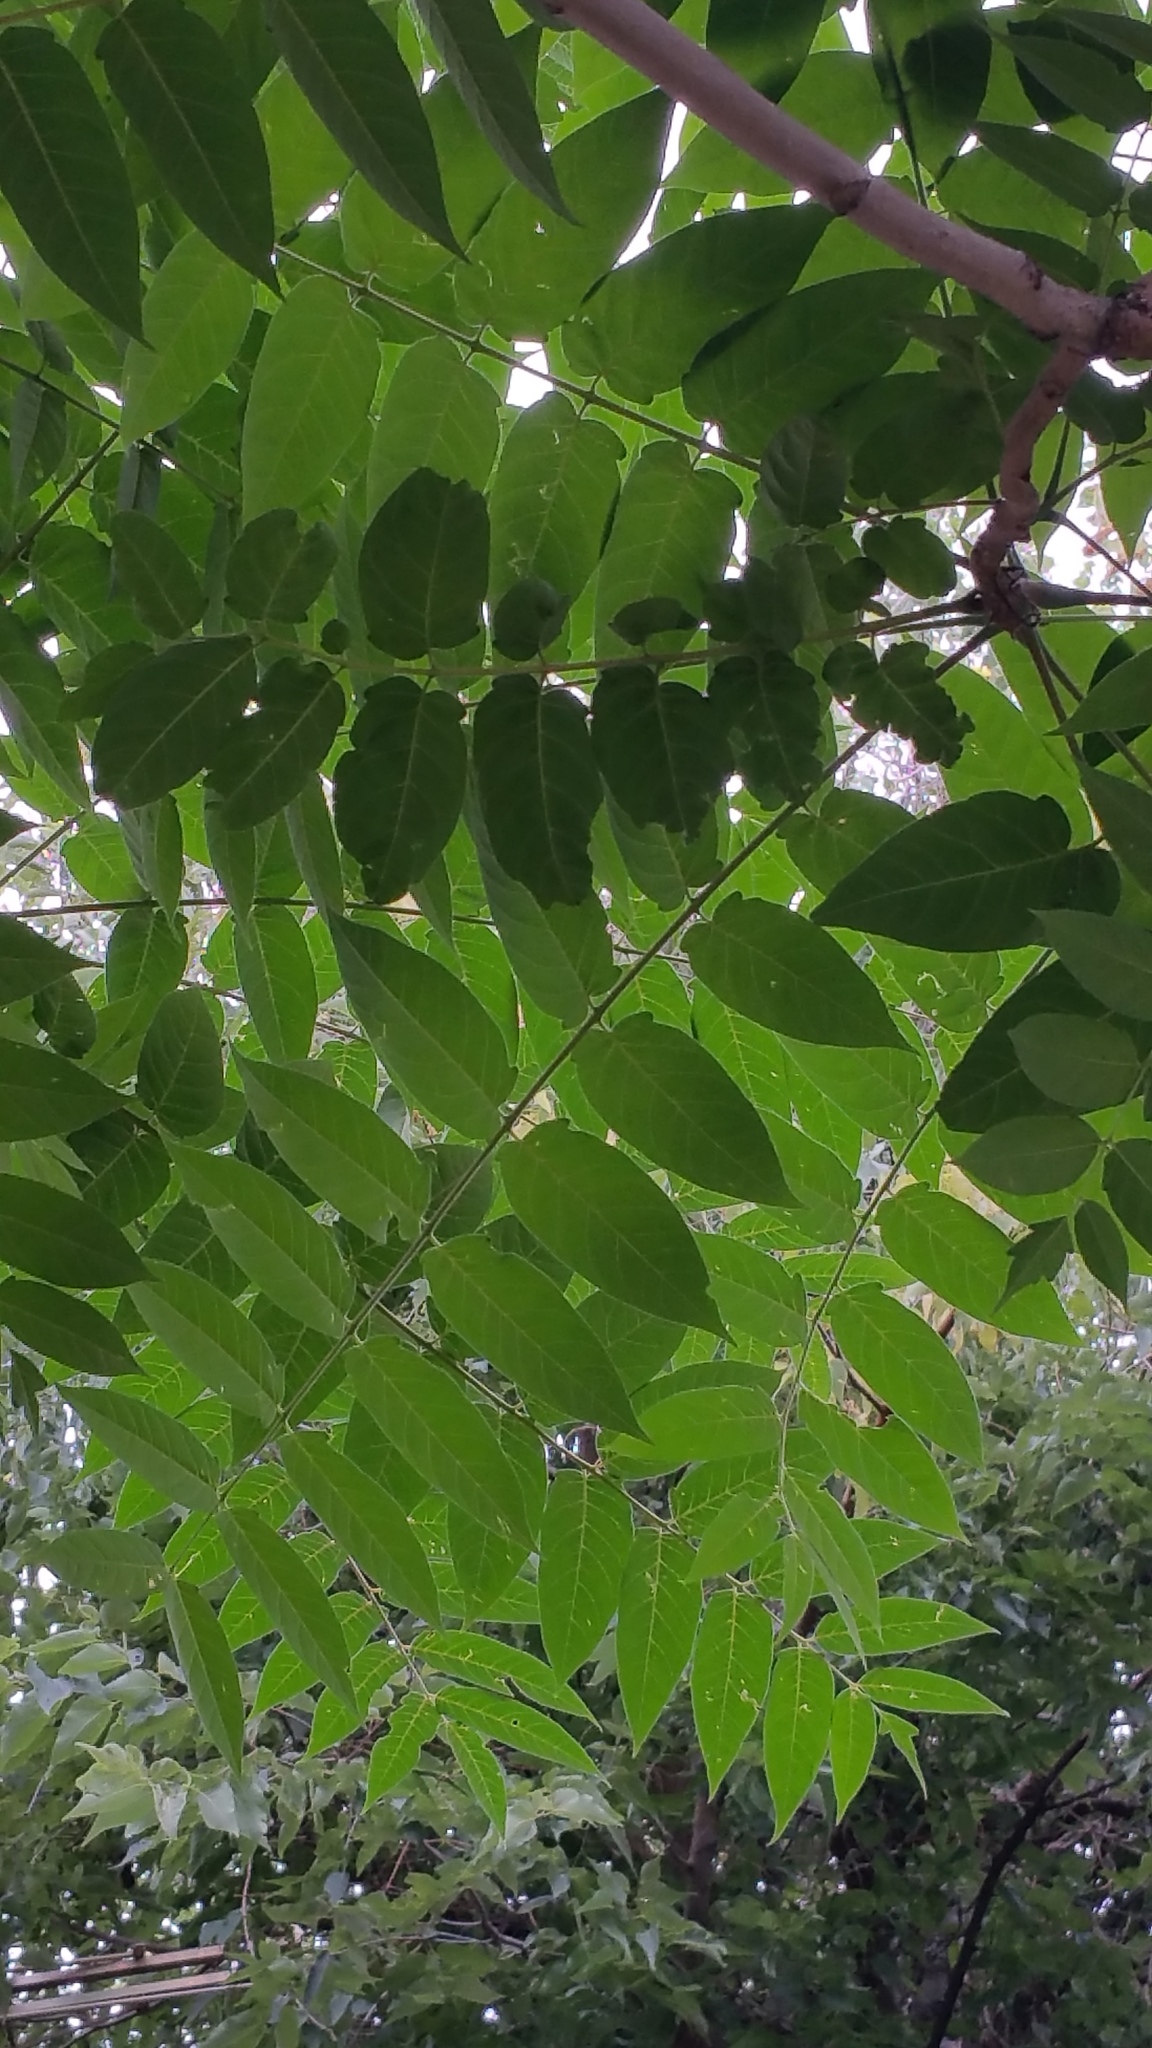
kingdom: Plantae
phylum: Tracheophyta
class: Magnoliopsida
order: Sapindales
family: Simaroubaceae
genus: Ailanthus
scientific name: Ailanthus altissima
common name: Tree-of-heaven
